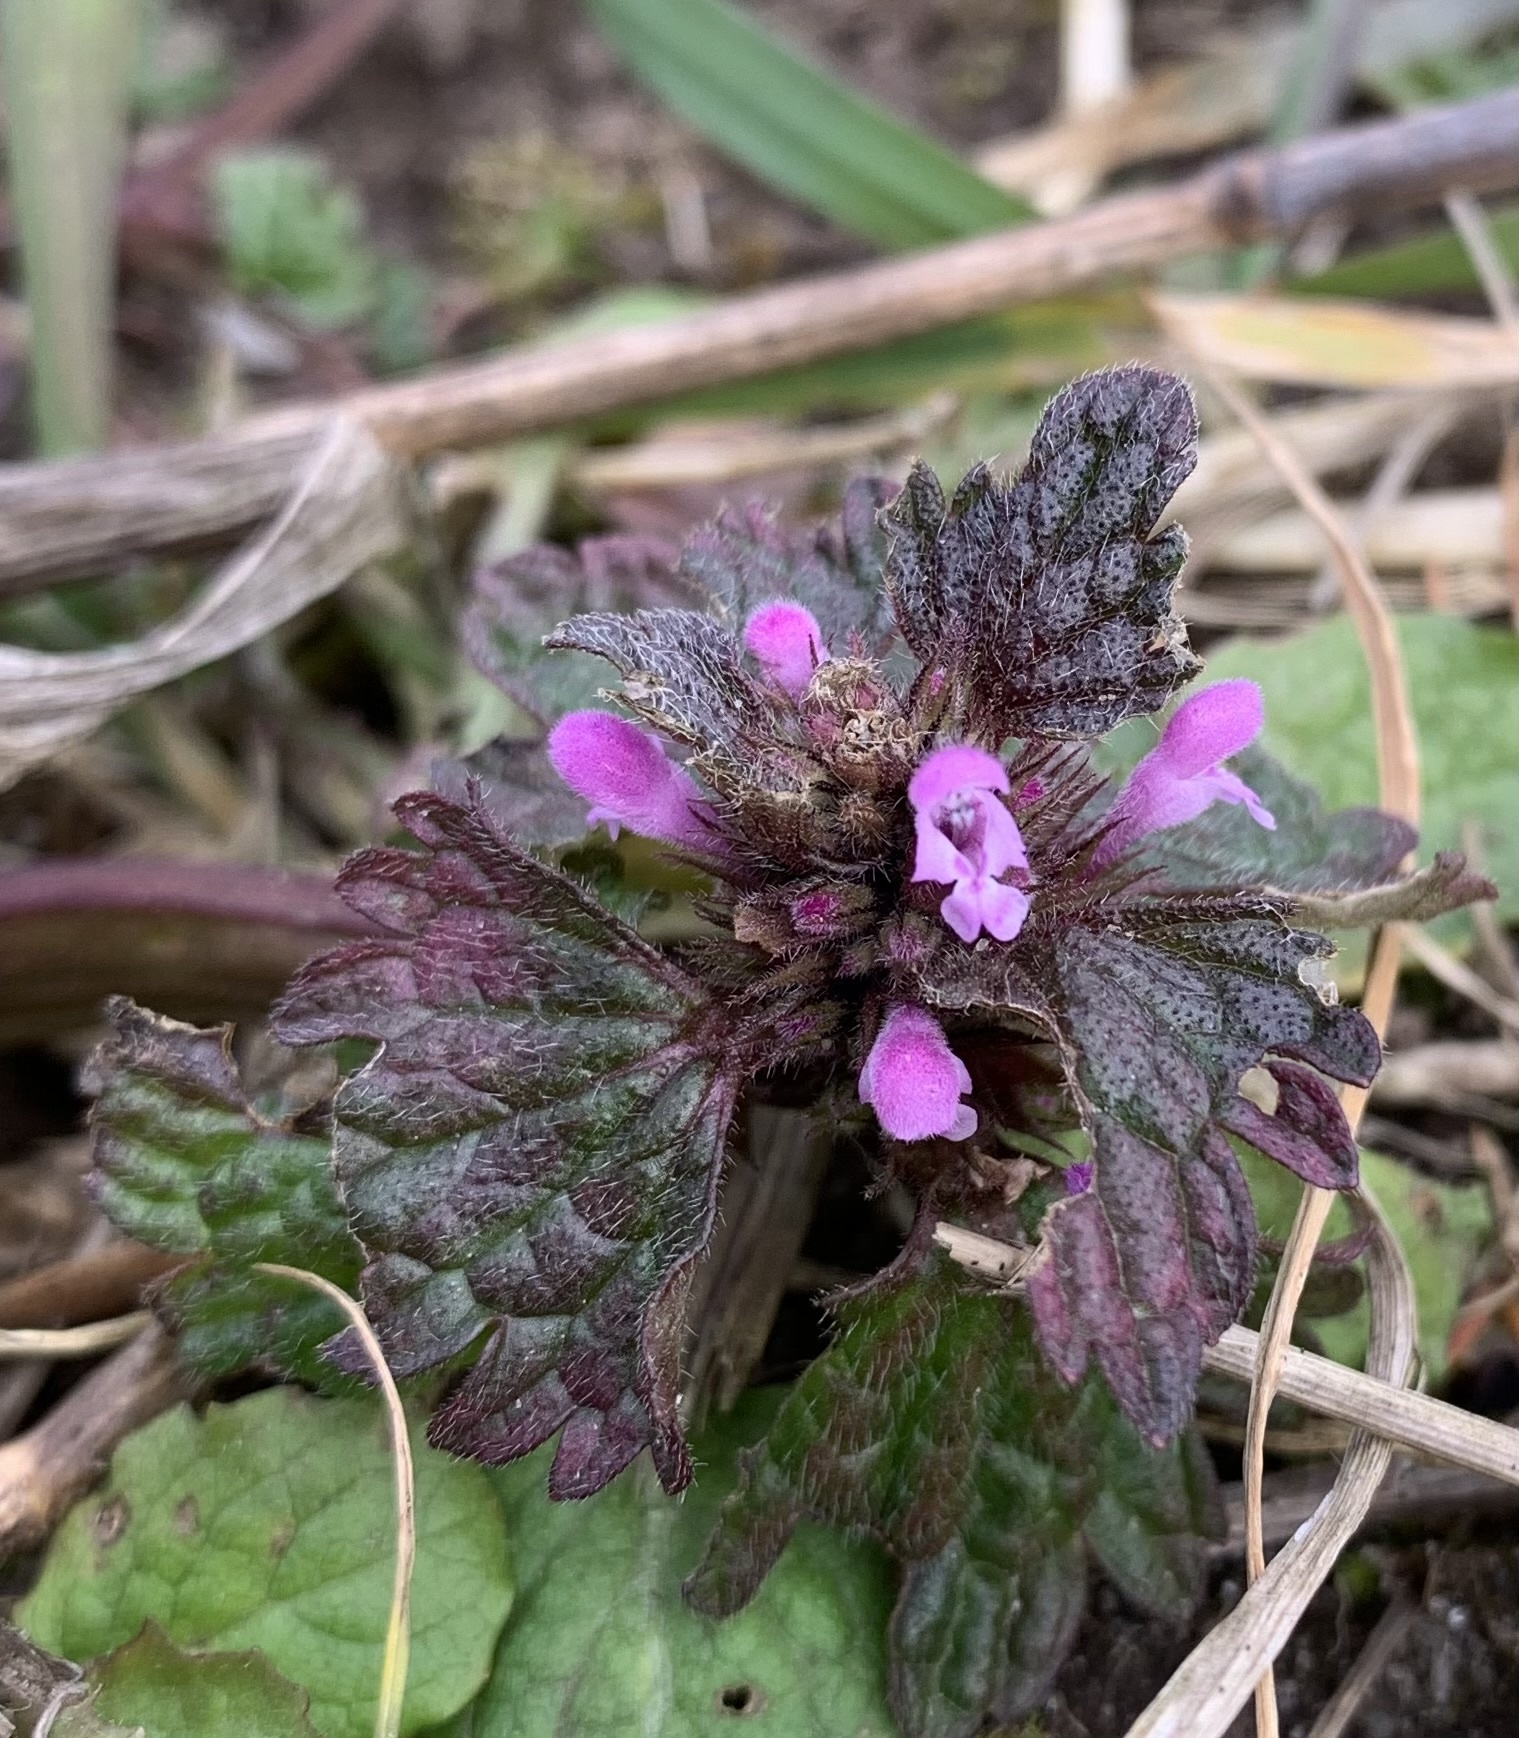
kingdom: Plantae
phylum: Tracheophyta
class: Magnoliopsida
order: Lamiales
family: Lamiaceae
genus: Lamium
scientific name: Lamium purpureum
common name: Red dead-nettle
